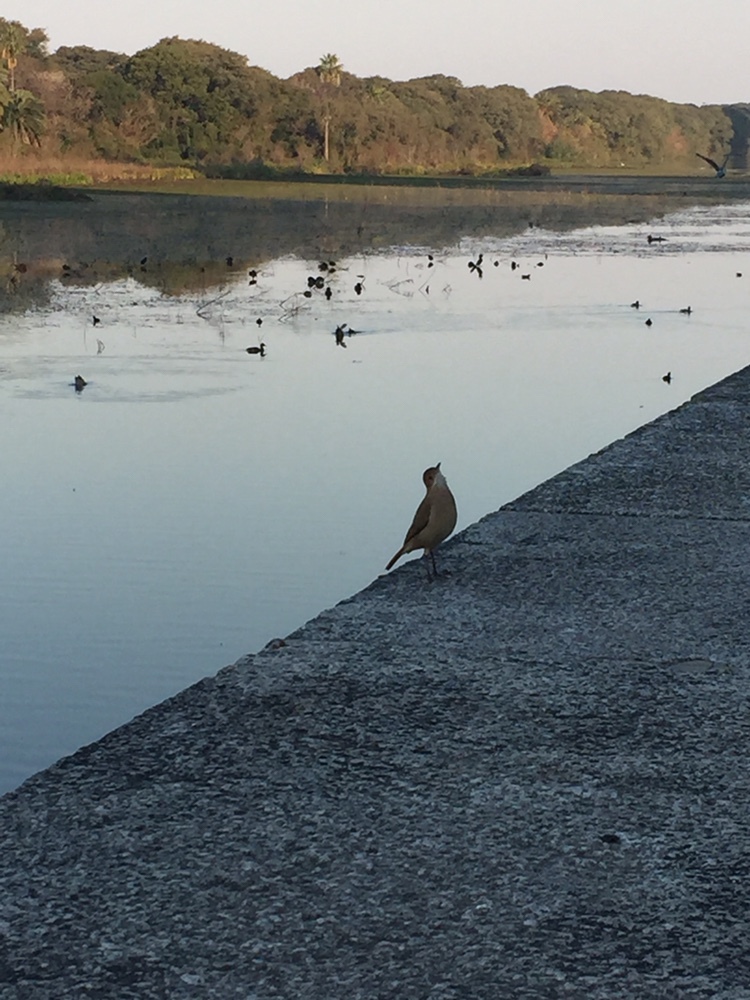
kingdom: Animalia
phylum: Chordata
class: Aves
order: Passeriformes
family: Furnariidae
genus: Furnarius
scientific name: Furnarius rufus
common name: Rufous hornero
